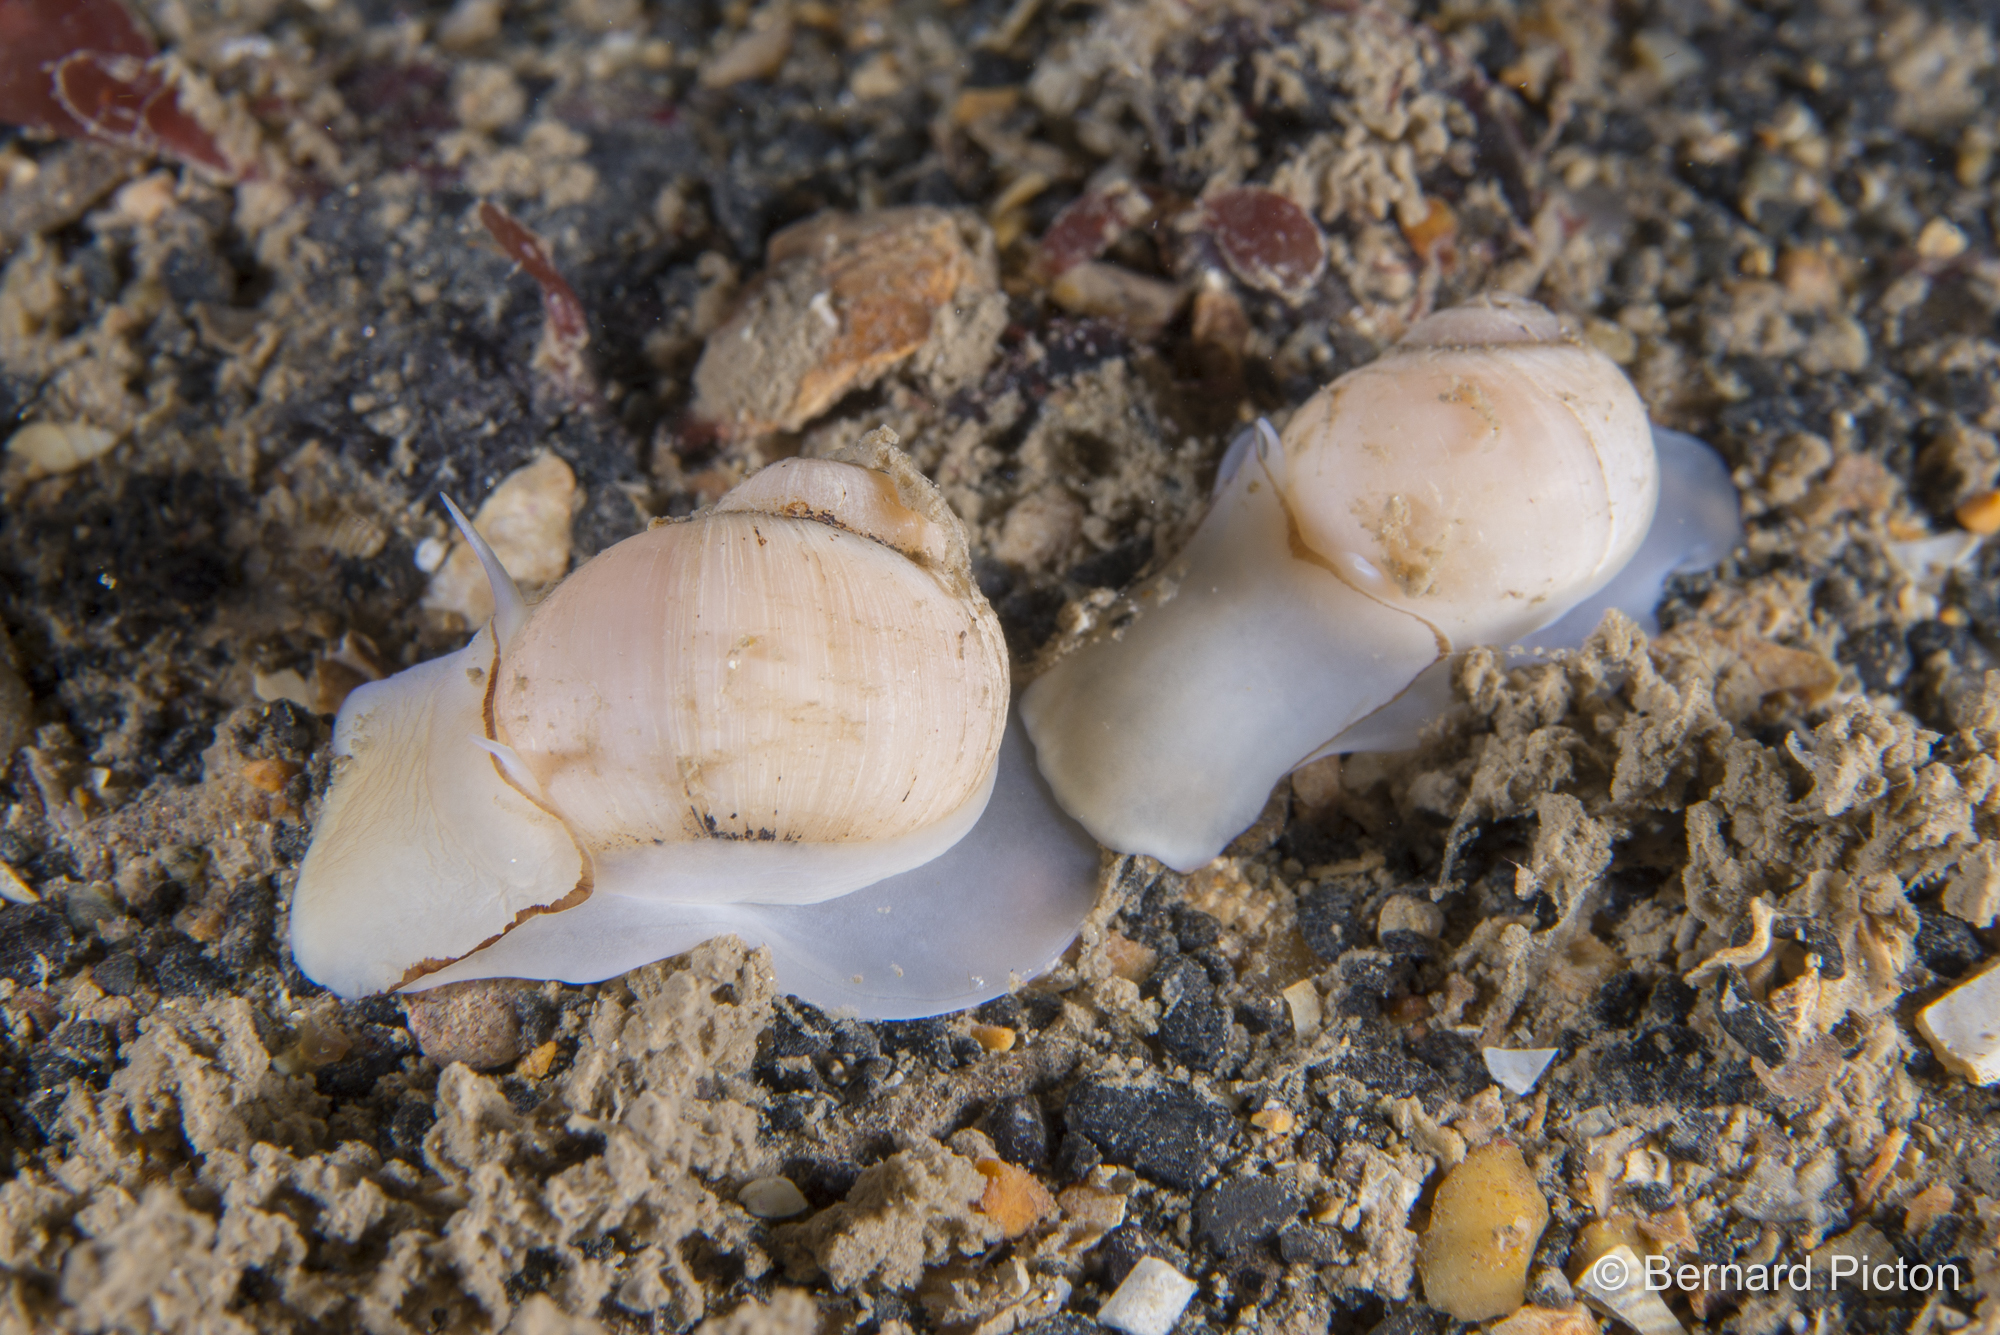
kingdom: Animalia
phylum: Mollusca
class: Gastropoda
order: Littorinimorpha
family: Naticidae
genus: Euspira
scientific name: Euspira montagui
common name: Unspotted moonsnail
